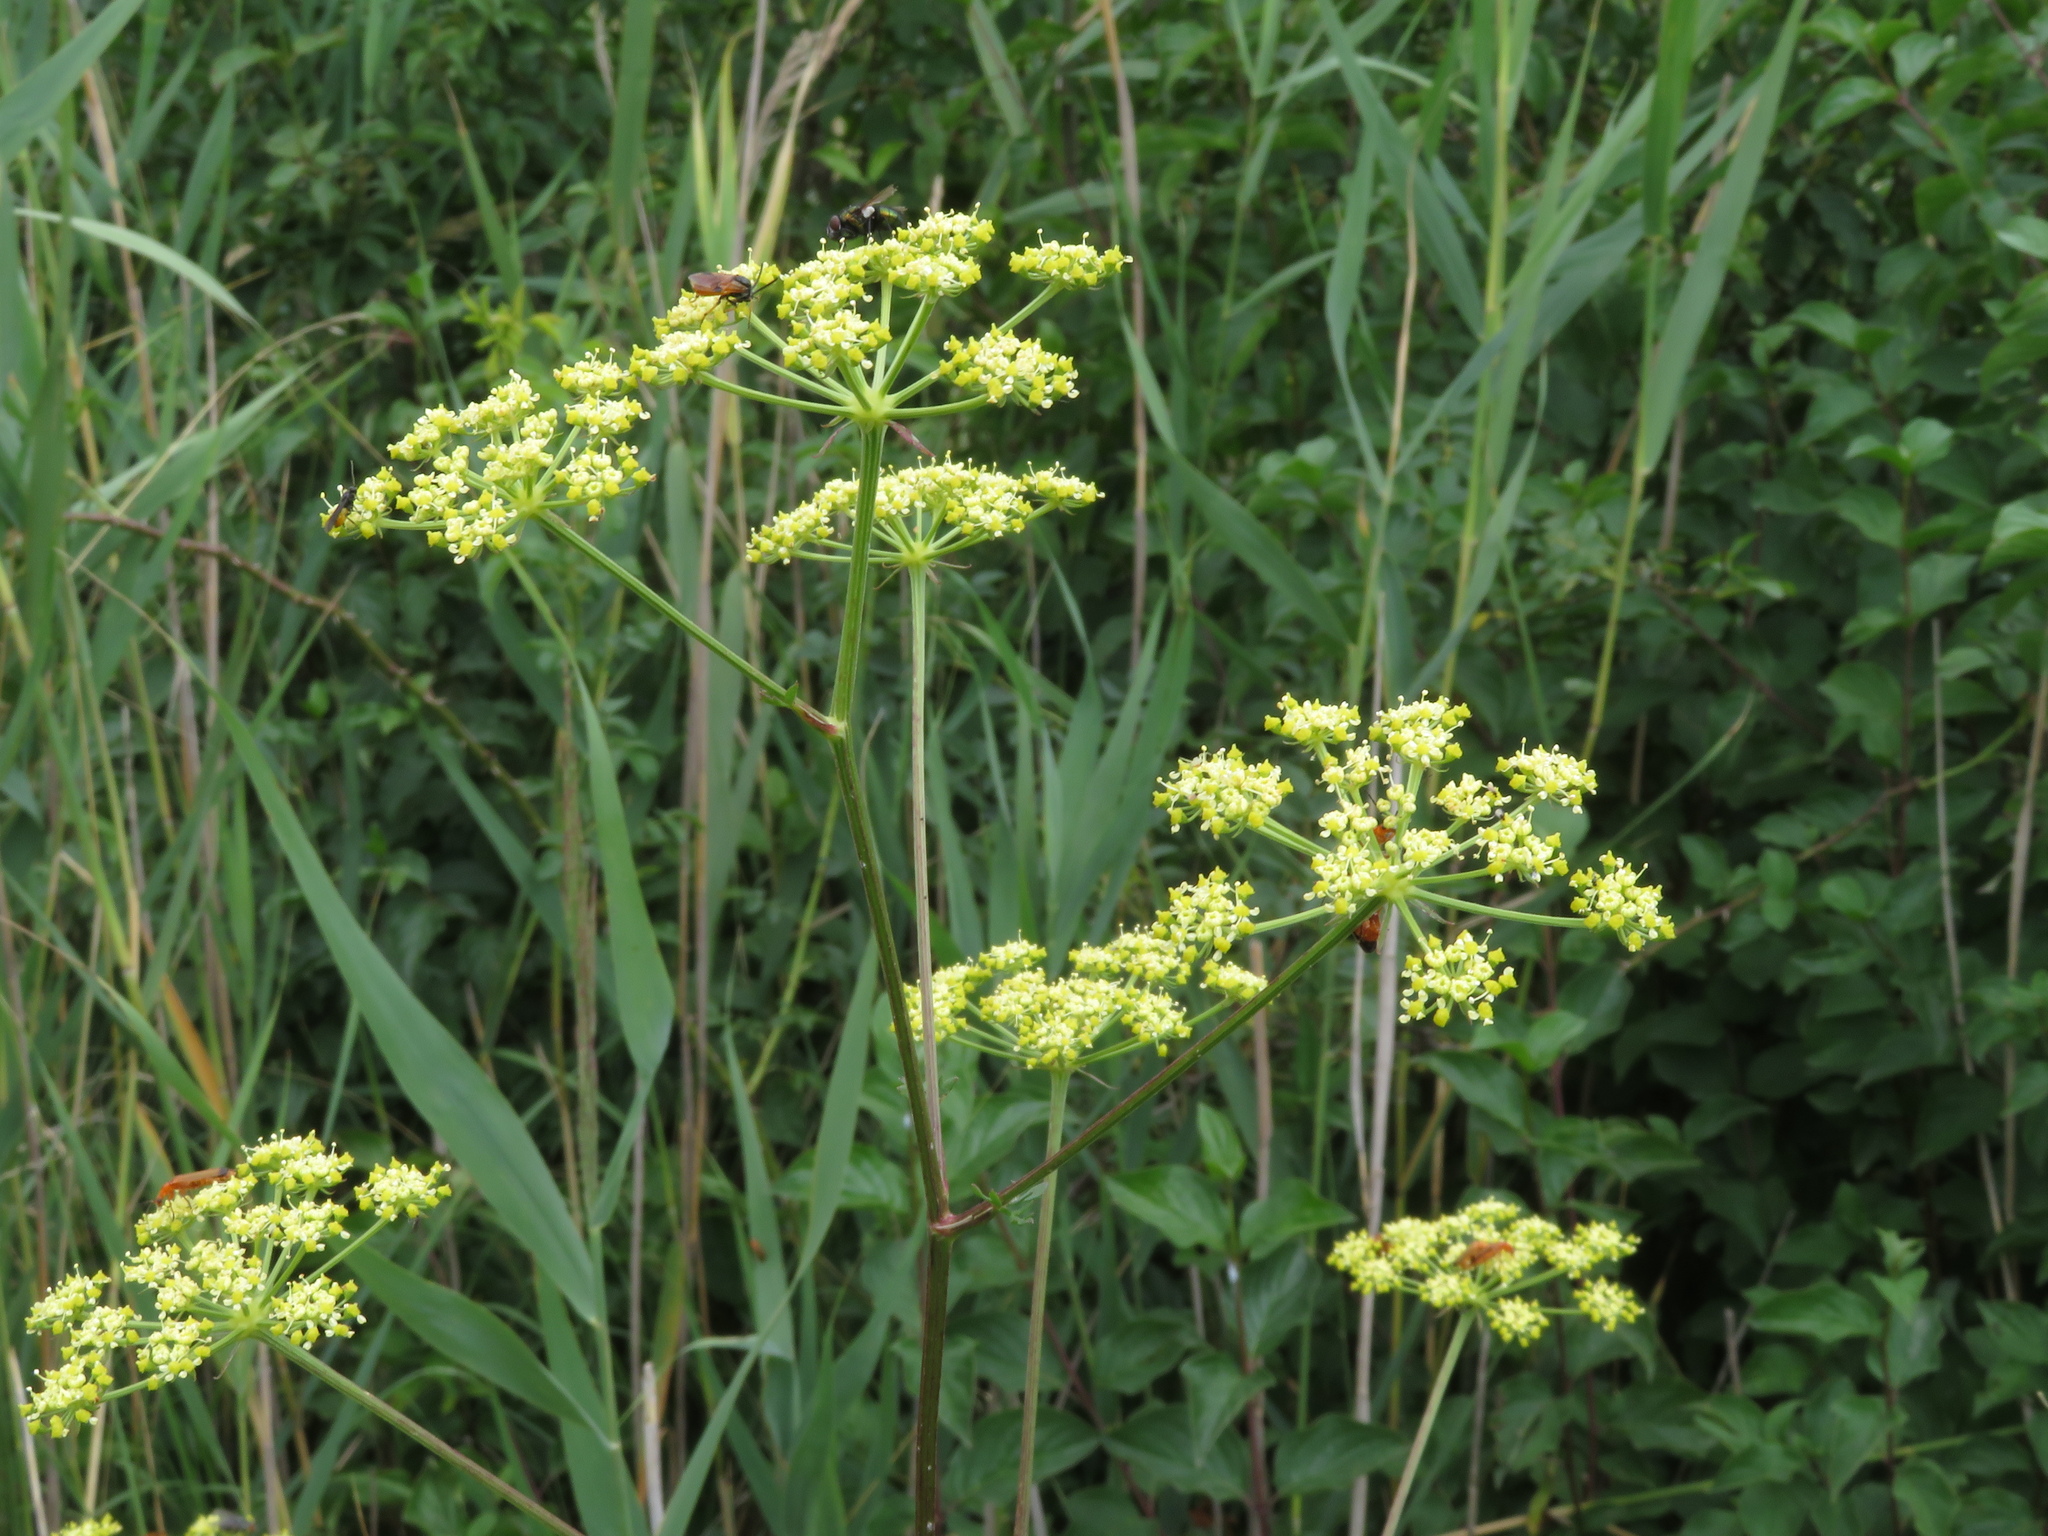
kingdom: Plantae
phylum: Tracheophyta
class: Magnoliopsida
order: Apiales
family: Apiaceae
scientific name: Apiaceae
